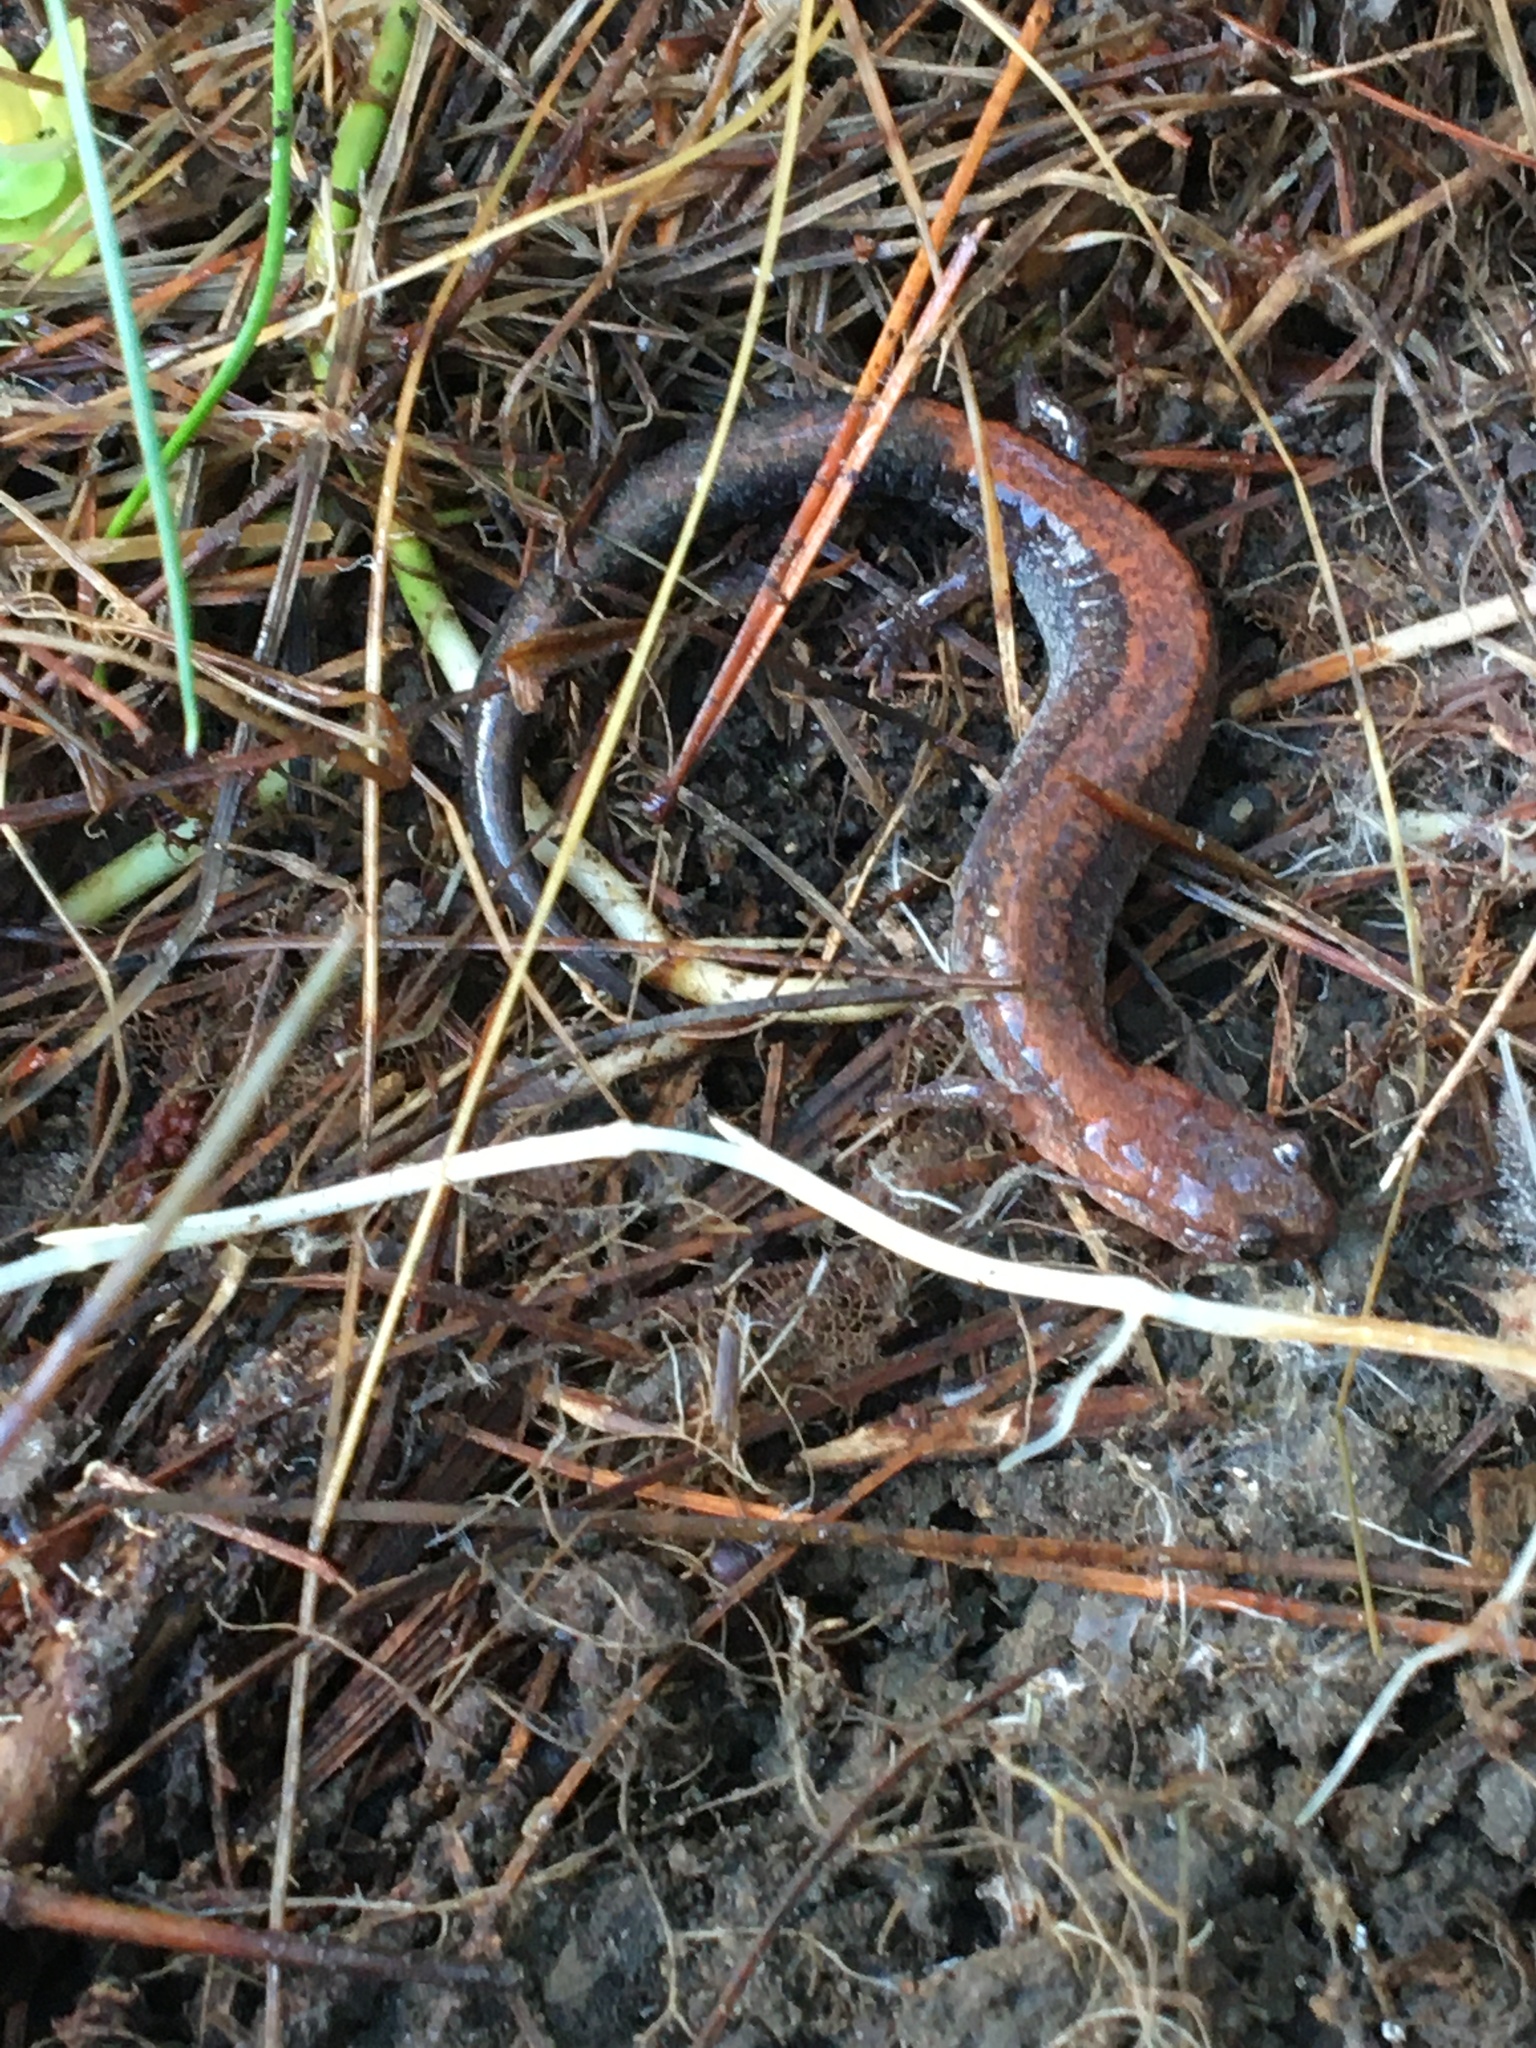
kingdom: Animalia
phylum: Chordata
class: Amphibia
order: Caudata
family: Plethodontidae
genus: Plethodon
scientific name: Plethodon cinereus
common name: Redback salamander
